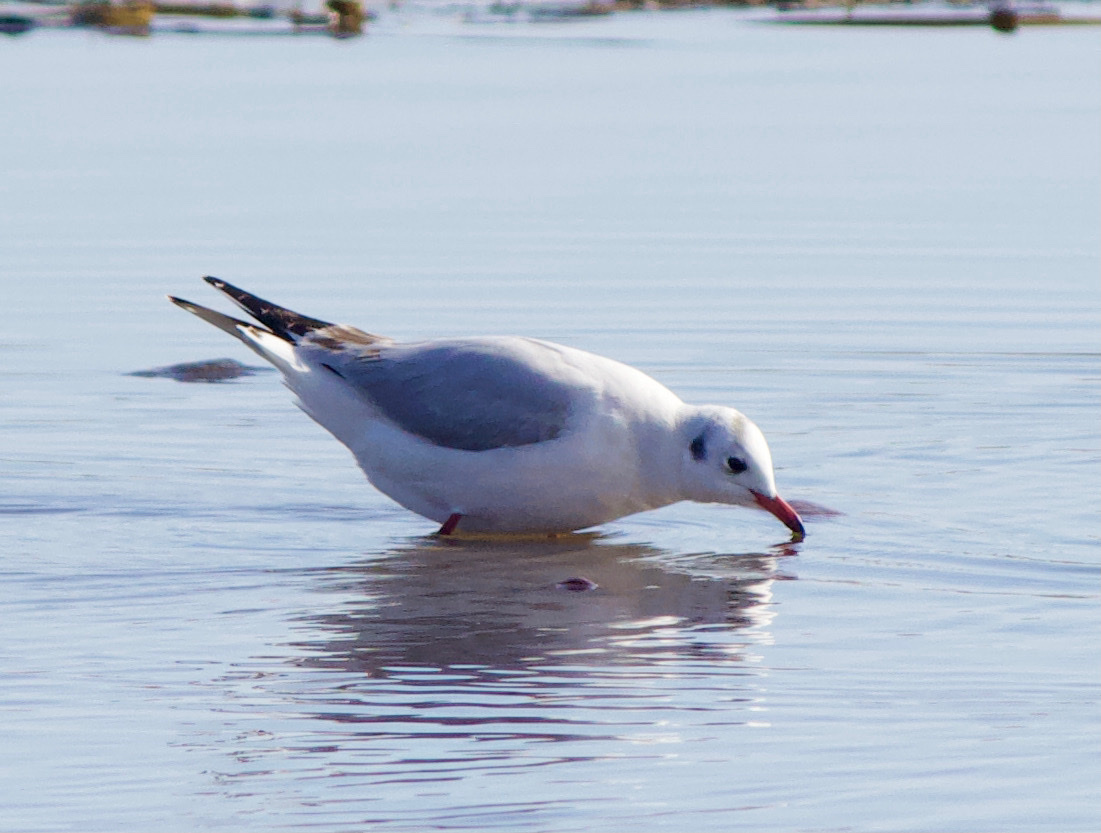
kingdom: Animalia
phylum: Chordata
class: Aves
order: Charadriiformes
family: Laridae
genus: Chroicocephalus
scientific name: Chroicocephalus maculipennis
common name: Brown-hooded gull
